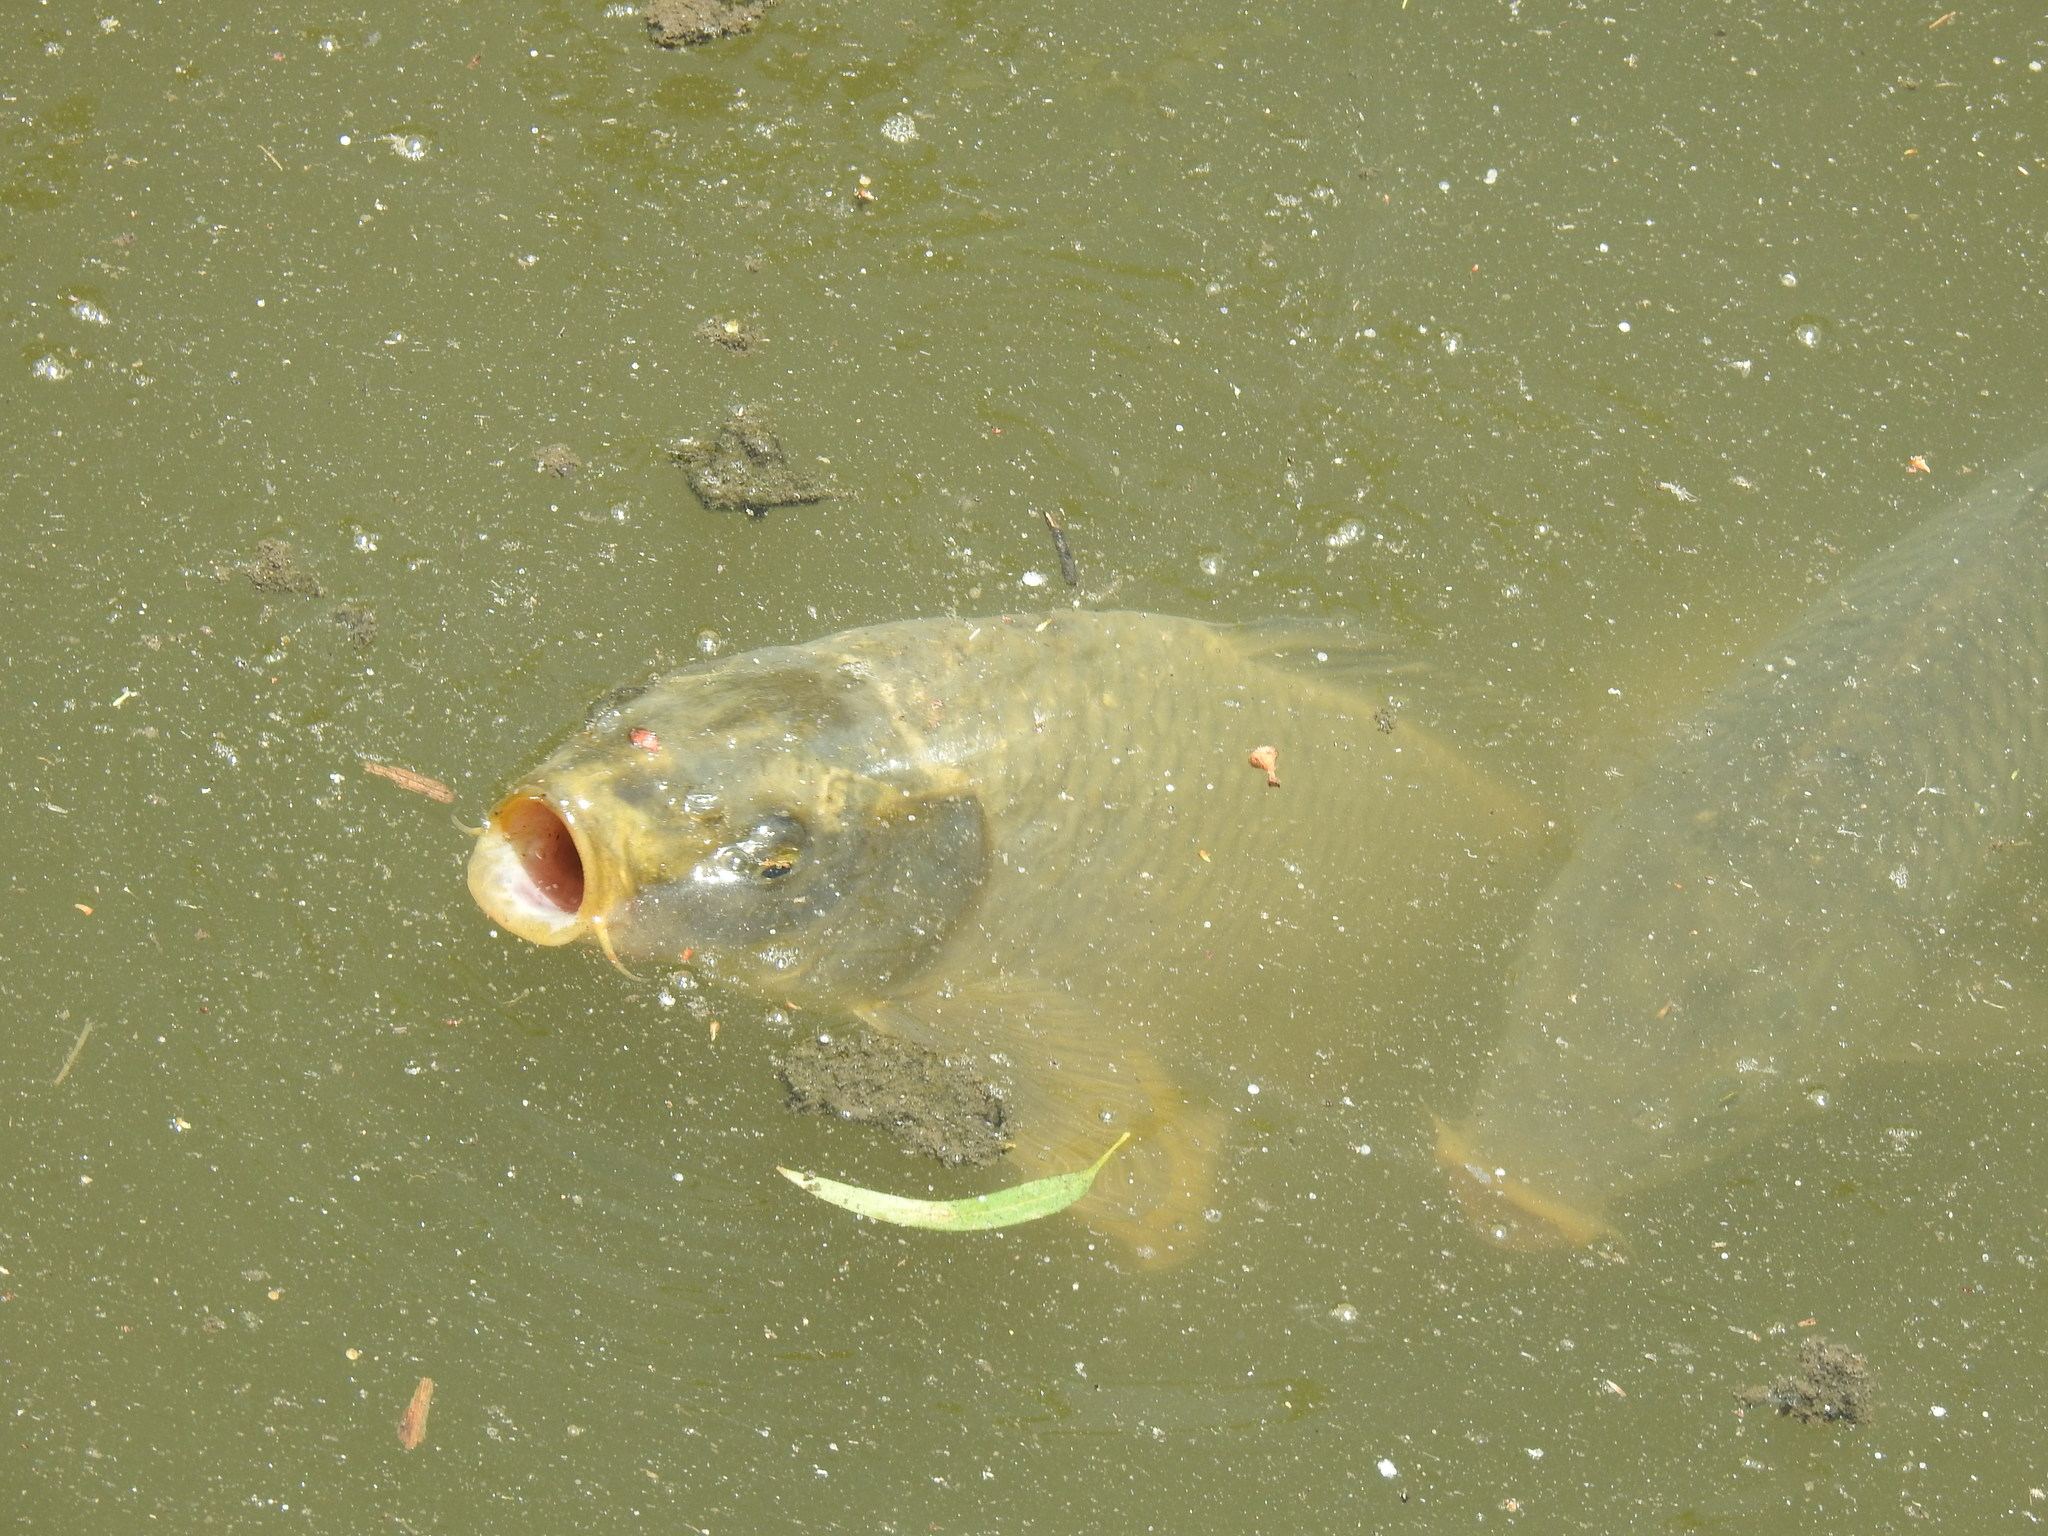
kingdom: Animalia
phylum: Chordata
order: Cypriniformes
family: Cyprinidae
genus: Cyprinus
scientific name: Cyprinus carpio
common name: Common carp
